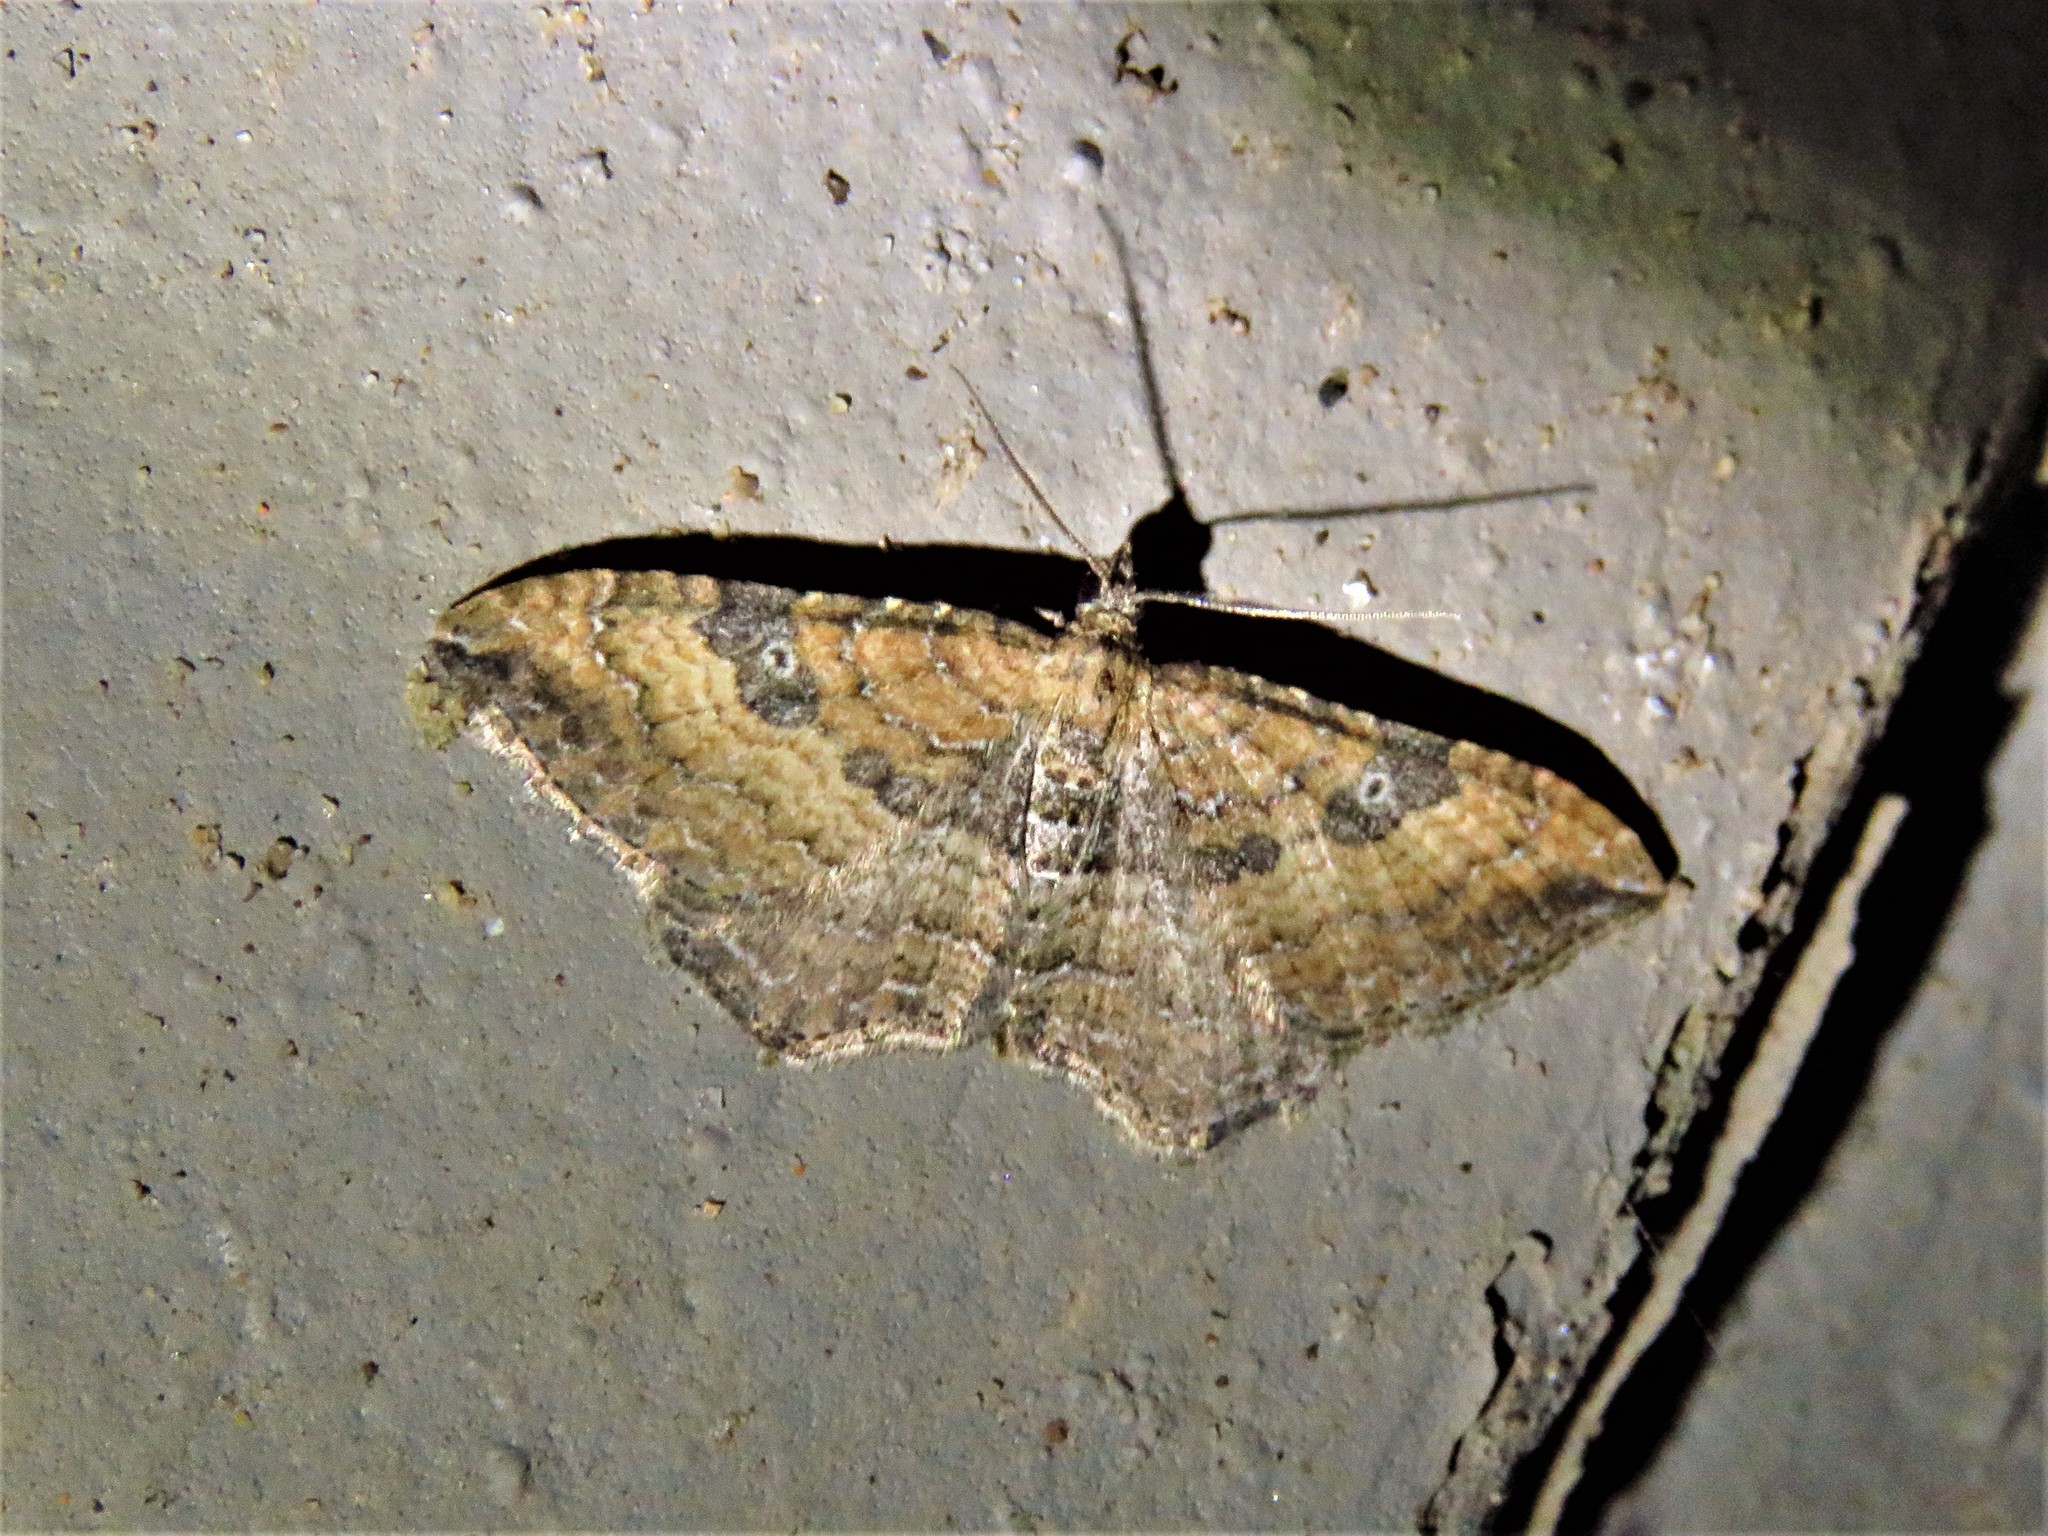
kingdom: Animalia
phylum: Arthropoda
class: Insecta
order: Lepidoptera
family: Geometridae
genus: Orthonama
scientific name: Orthonama obstipata
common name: The gem
